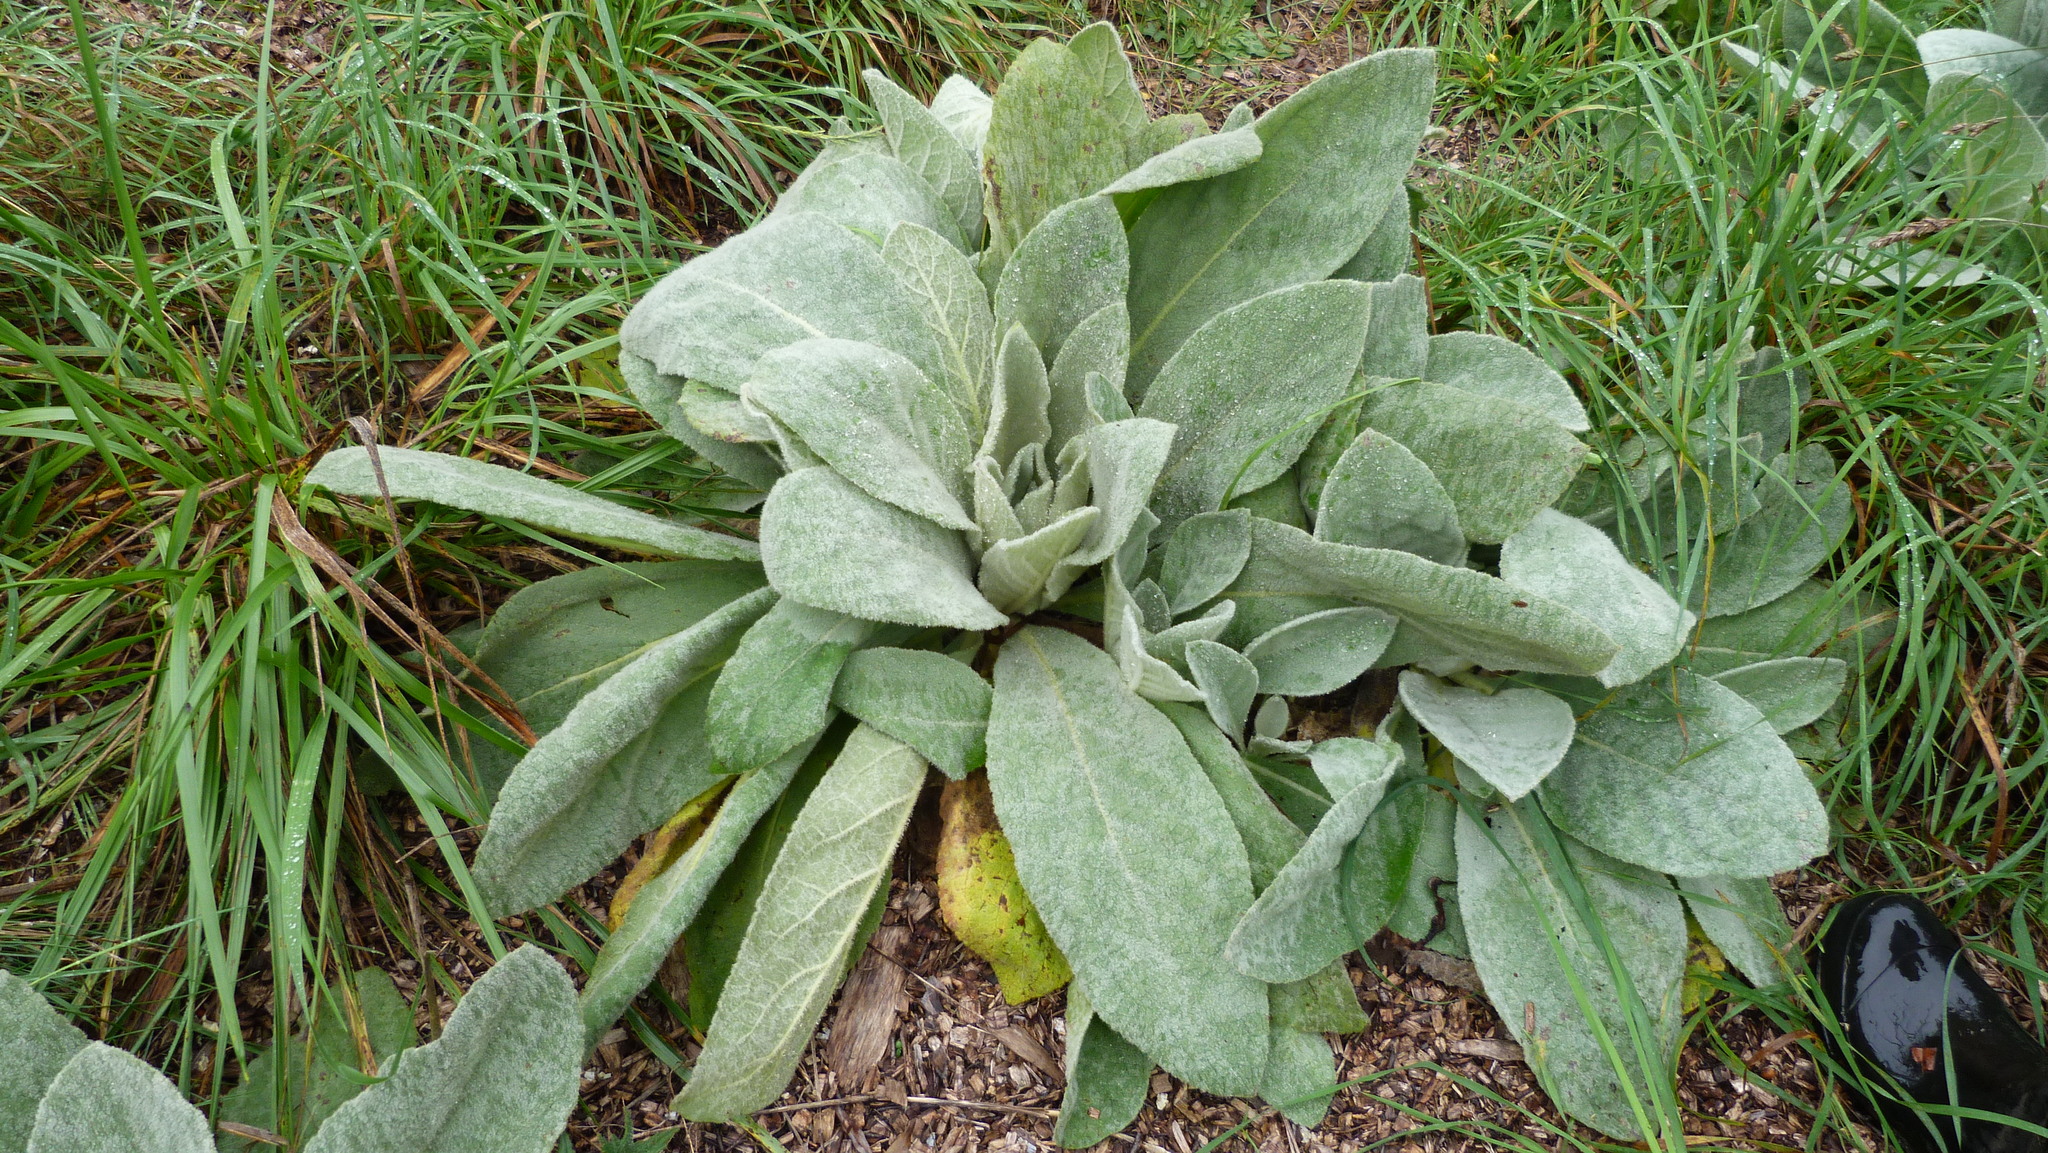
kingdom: Plantae
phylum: Tracheophyta
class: Magnoliopsida
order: Lamiales
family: Scrophulariaceae
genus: Verbascum
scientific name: Verbascum thapsus
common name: Common mullein
